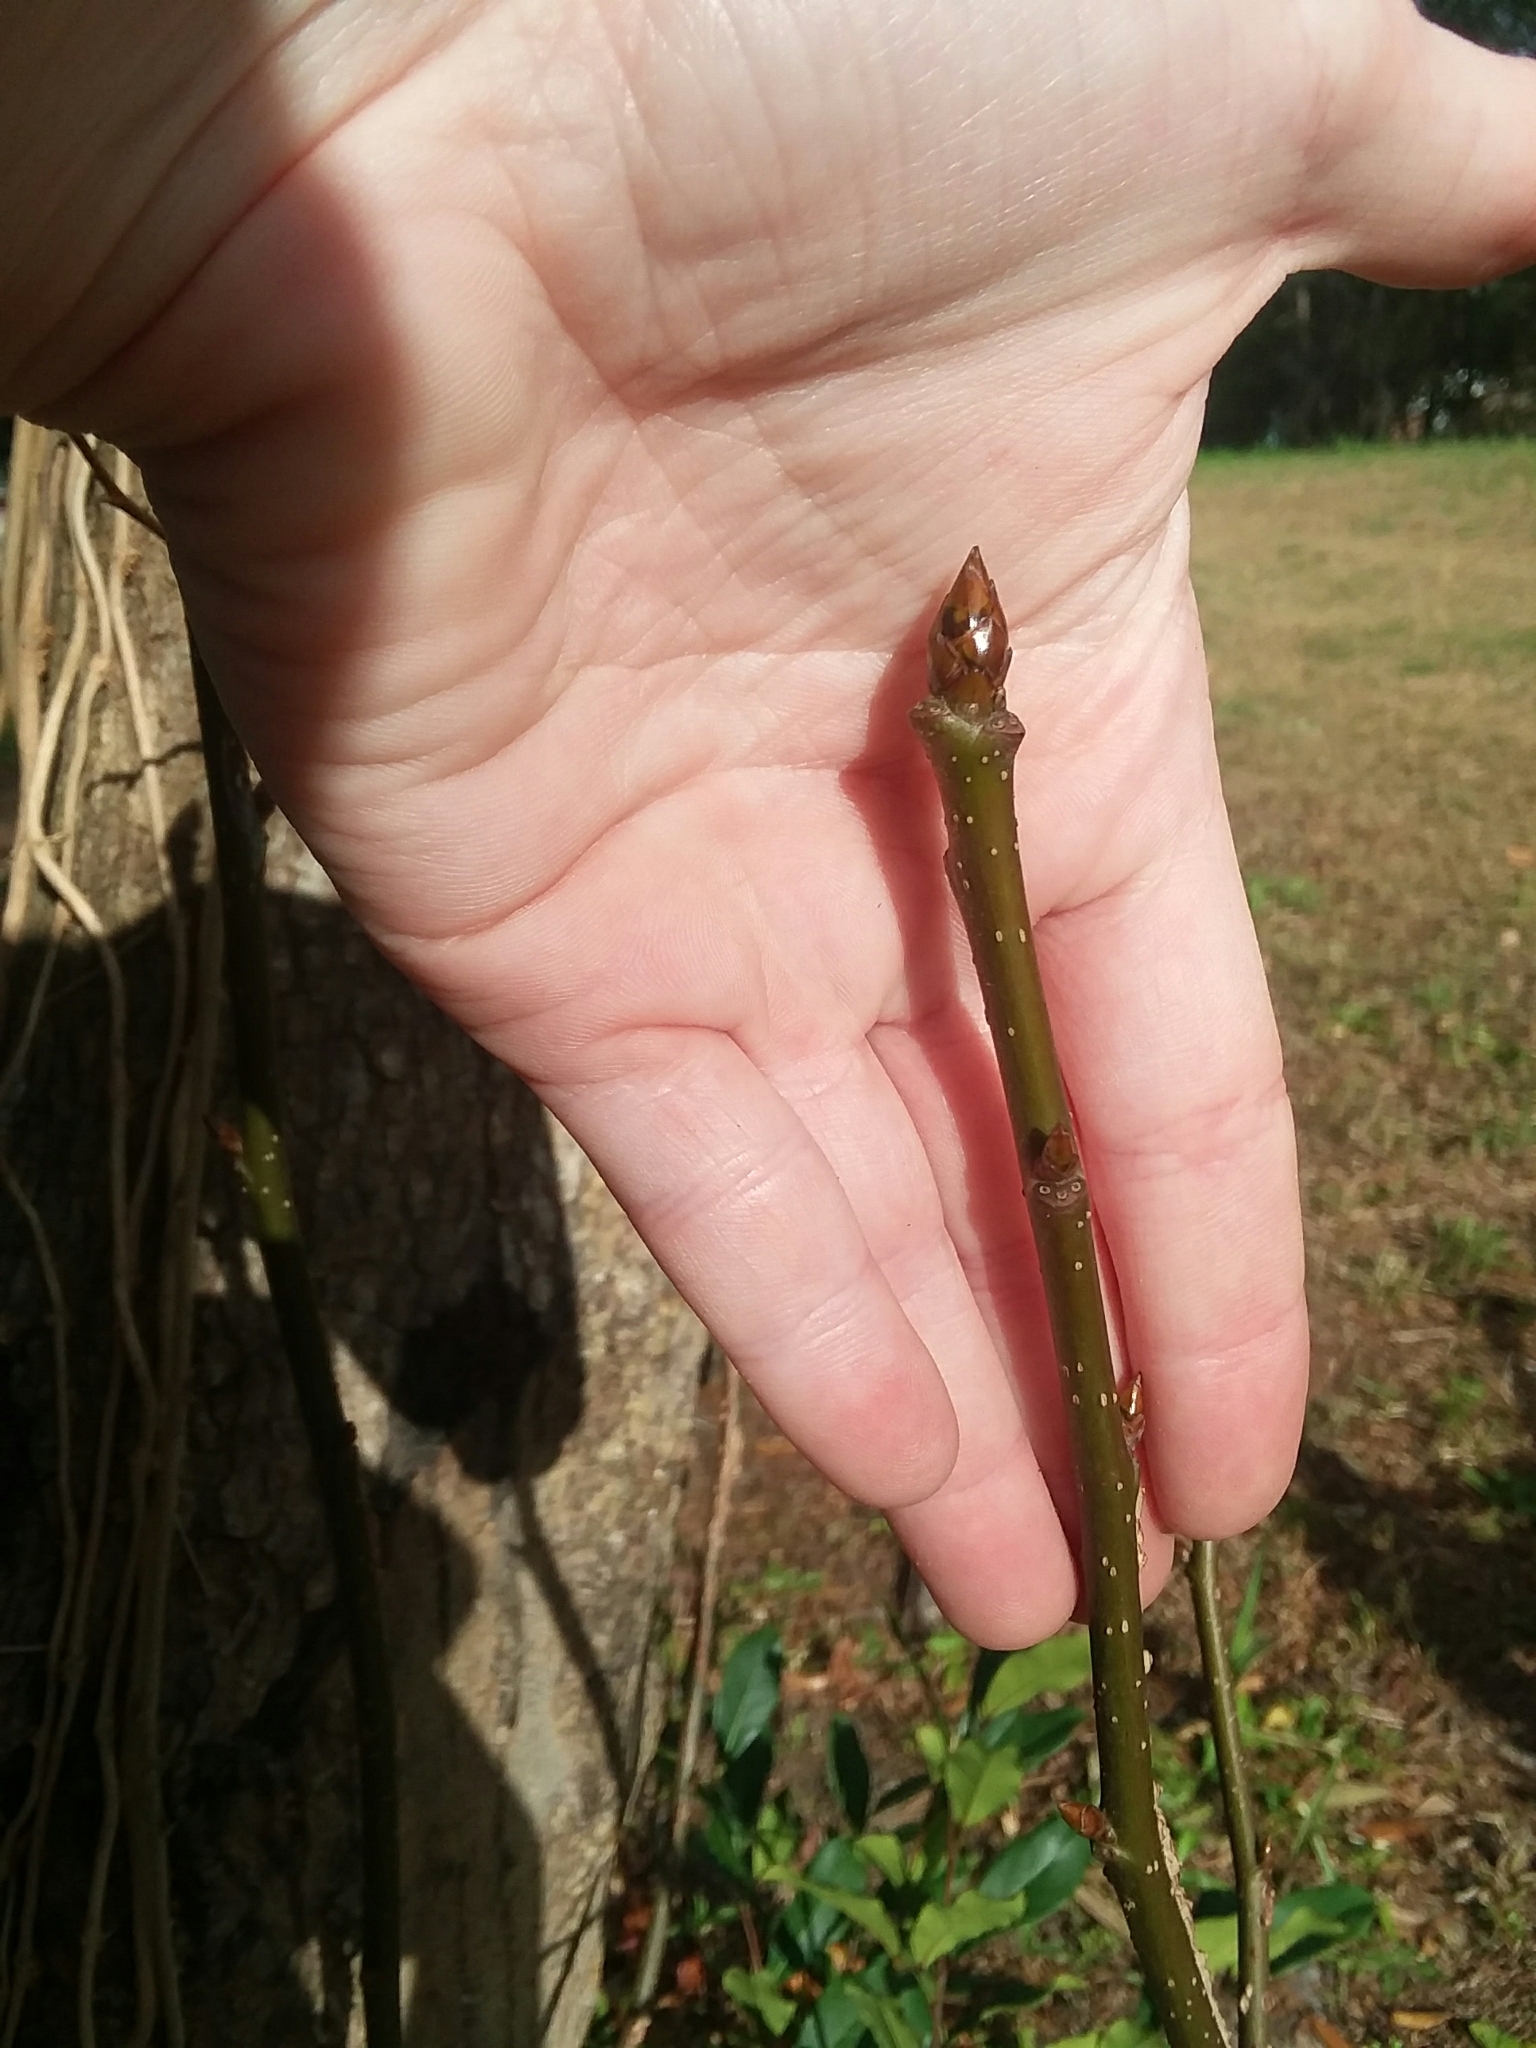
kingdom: Plantae
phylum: Tracheophyta
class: Magnoliopsida
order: Saxifragales
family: Altingiaceae
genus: Liquidambar
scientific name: Liquidambar styraciflua
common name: Sweet gum
